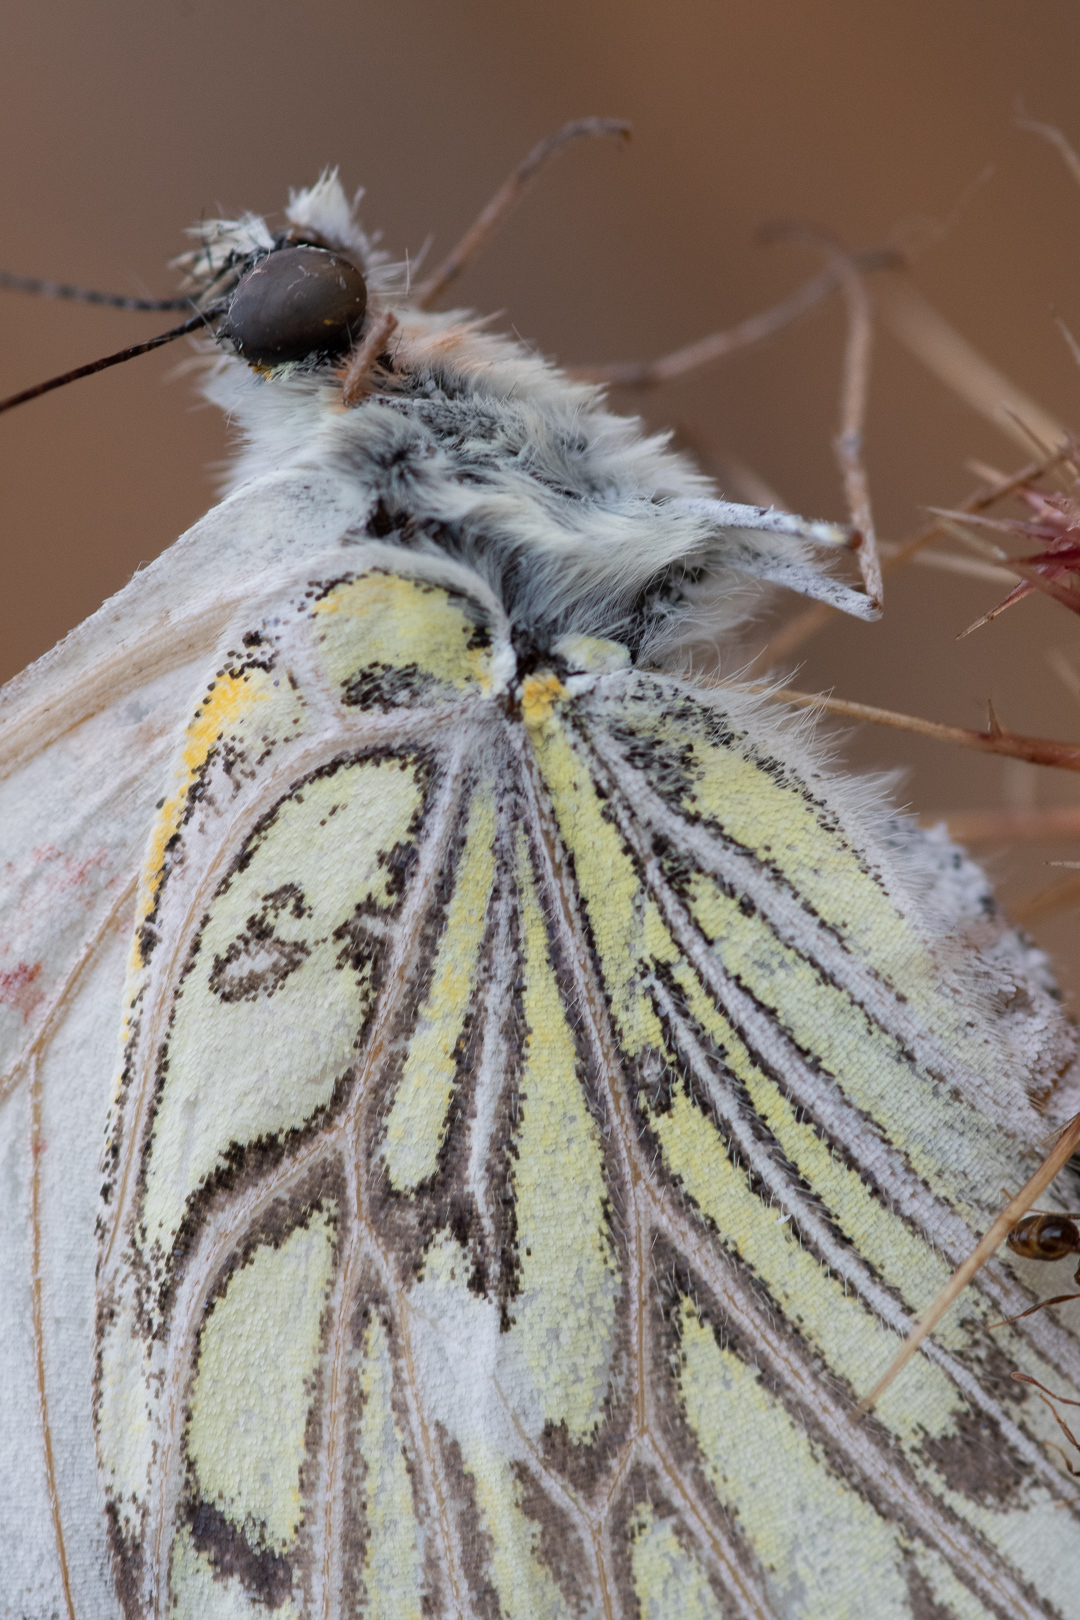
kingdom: Animalia
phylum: Arthropoda
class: Insecta
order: Lepidoptera
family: Pieridae
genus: Tatochila
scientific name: Tatochila autodice
